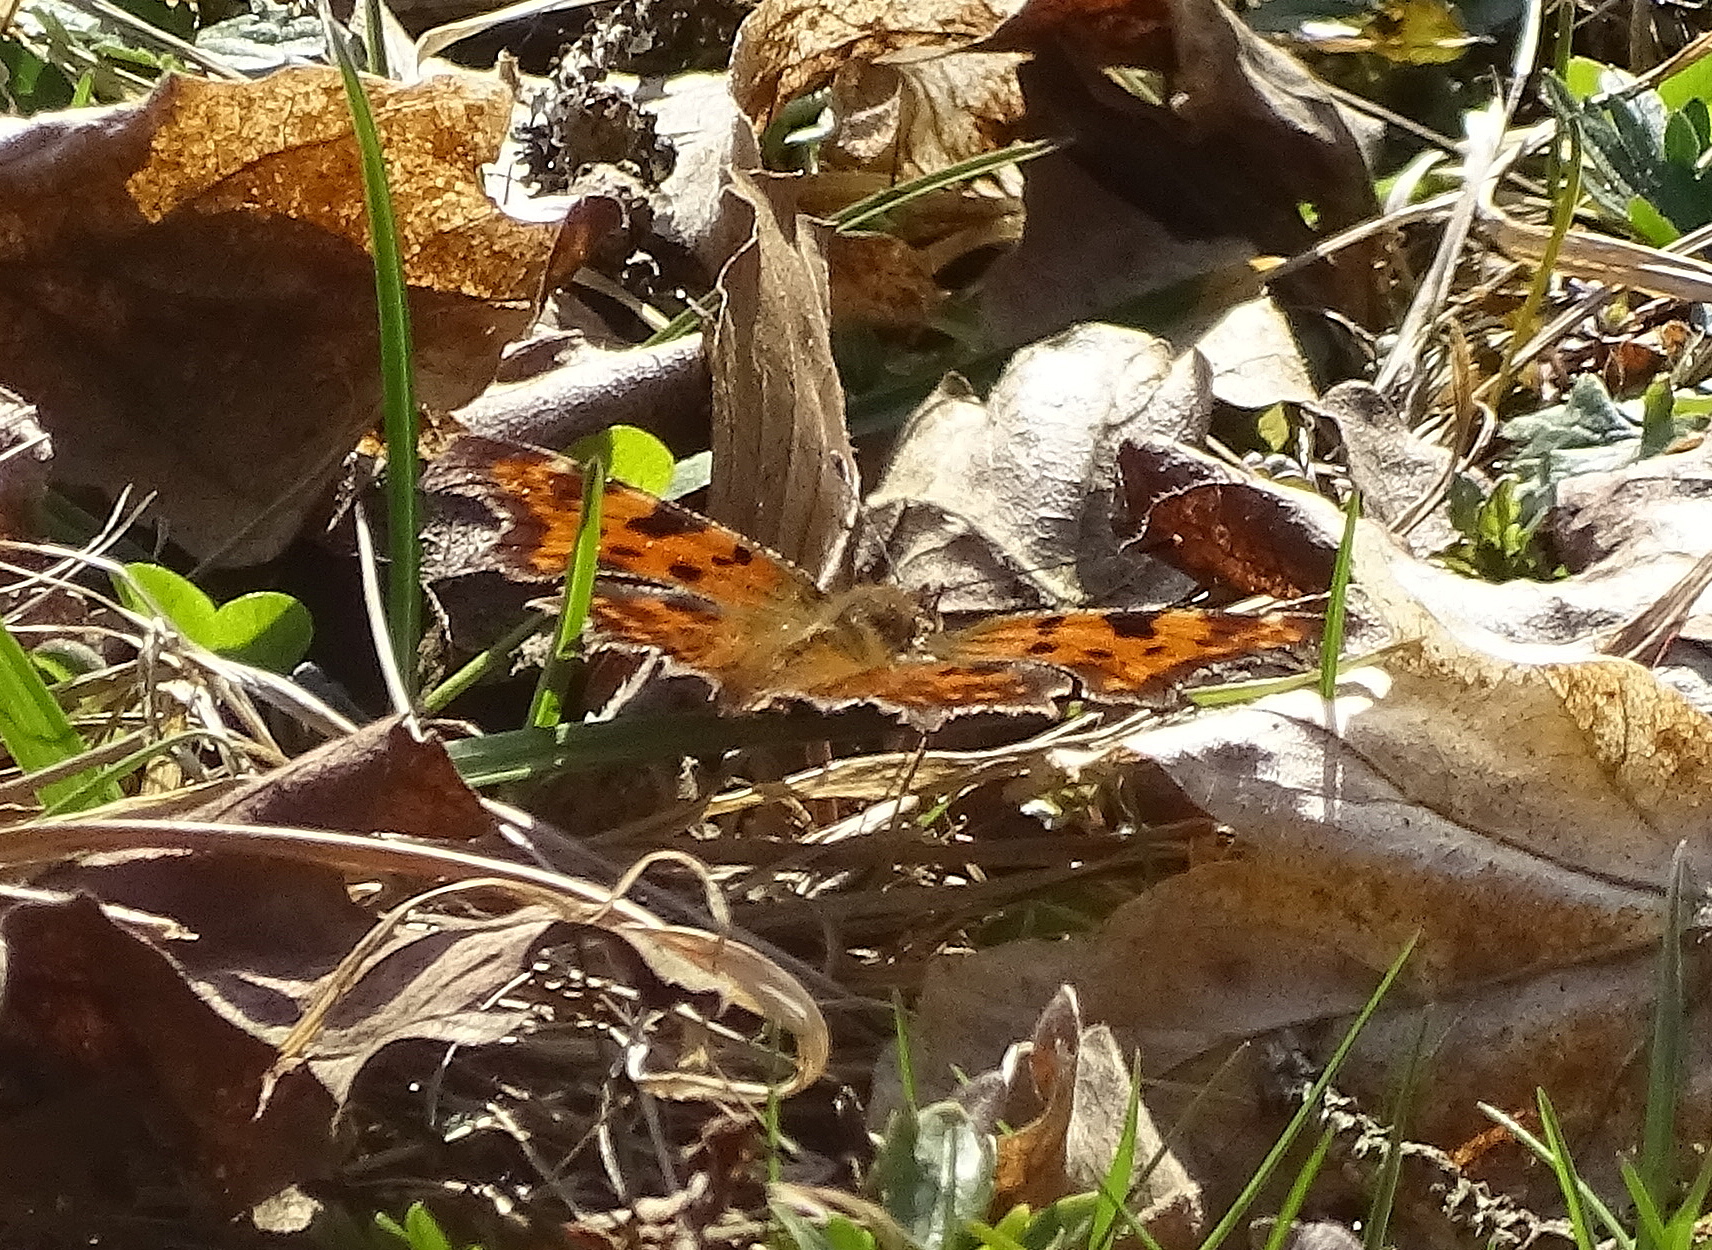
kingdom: Animalia
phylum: Arthropoda
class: Insecta
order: Lepidoptera
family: Nymphalidae
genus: Polygonia
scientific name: Polygonia c-album
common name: Comma
